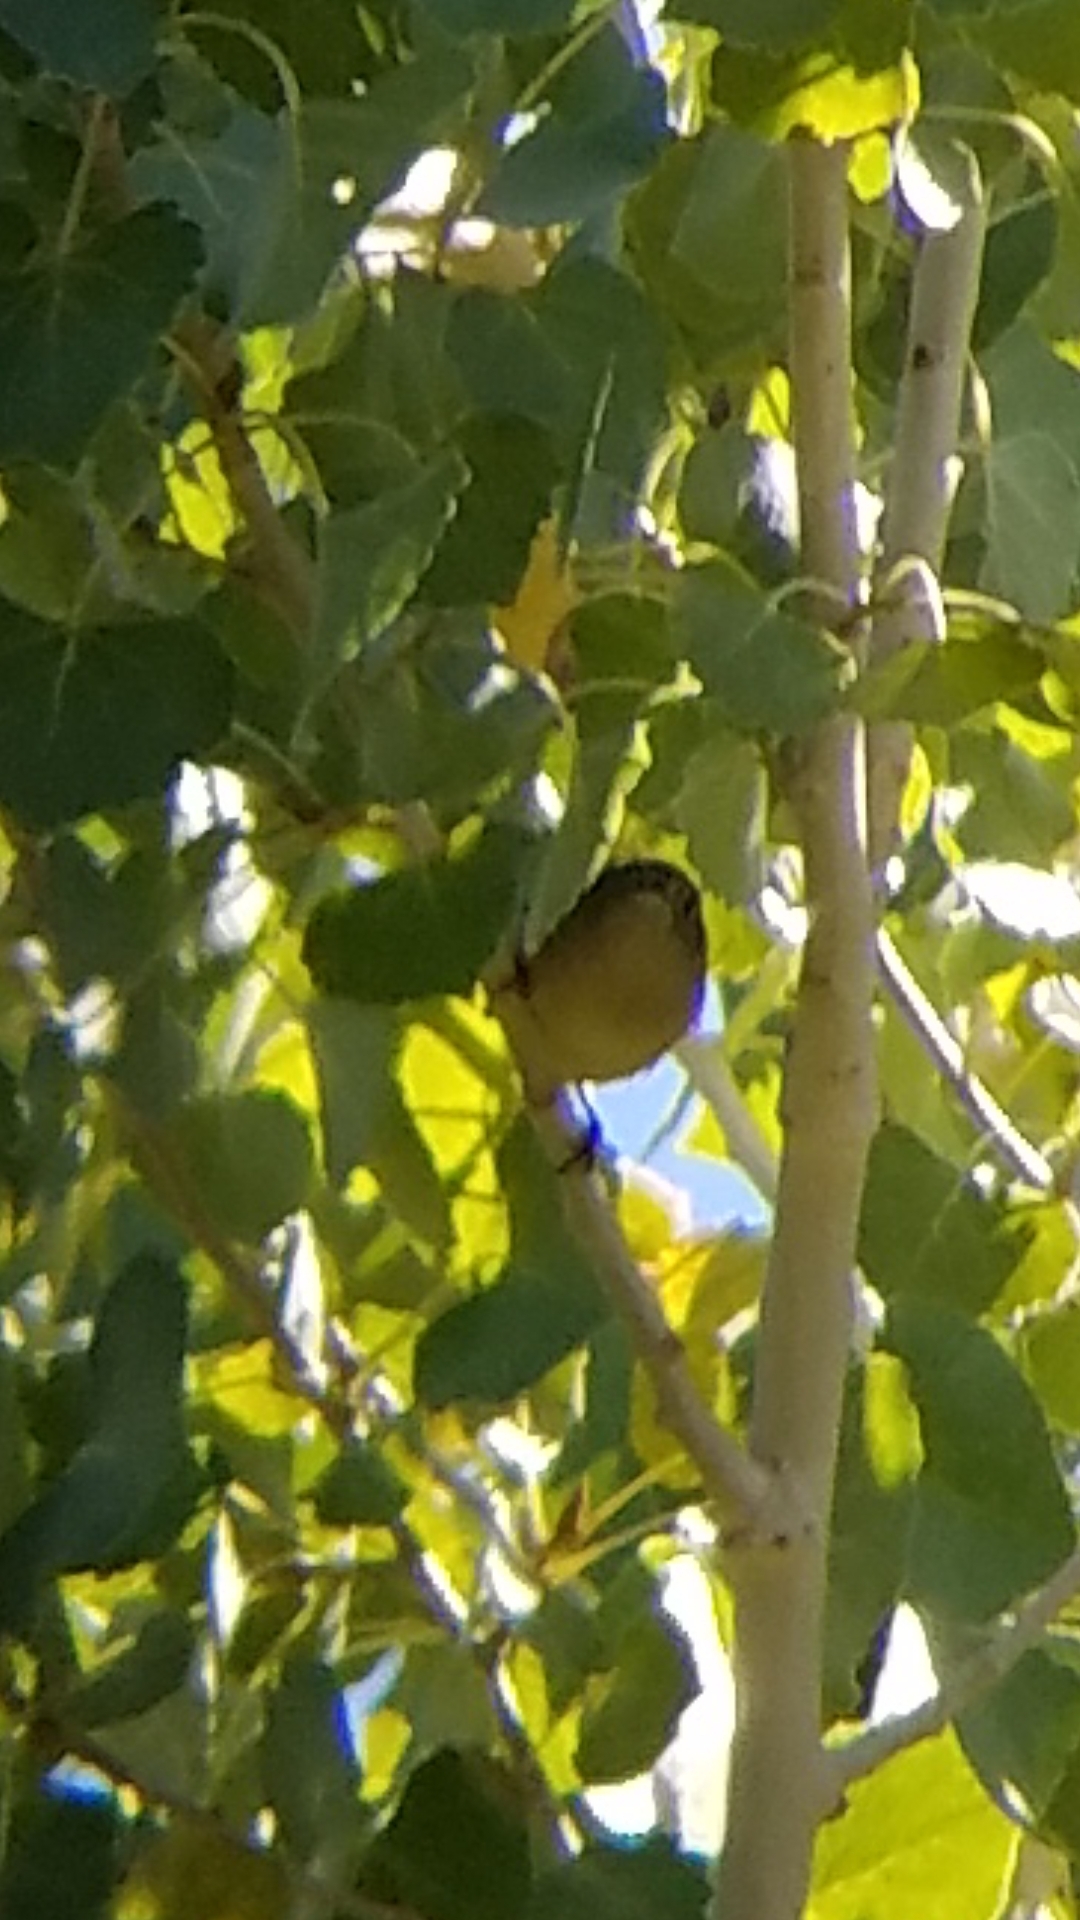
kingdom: Animalia
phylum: Chordata
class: Aves
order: Passeriformes
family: Regulidae
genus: Regulus
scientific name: Regulus calendula
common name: Ruby-crowned kinglet
